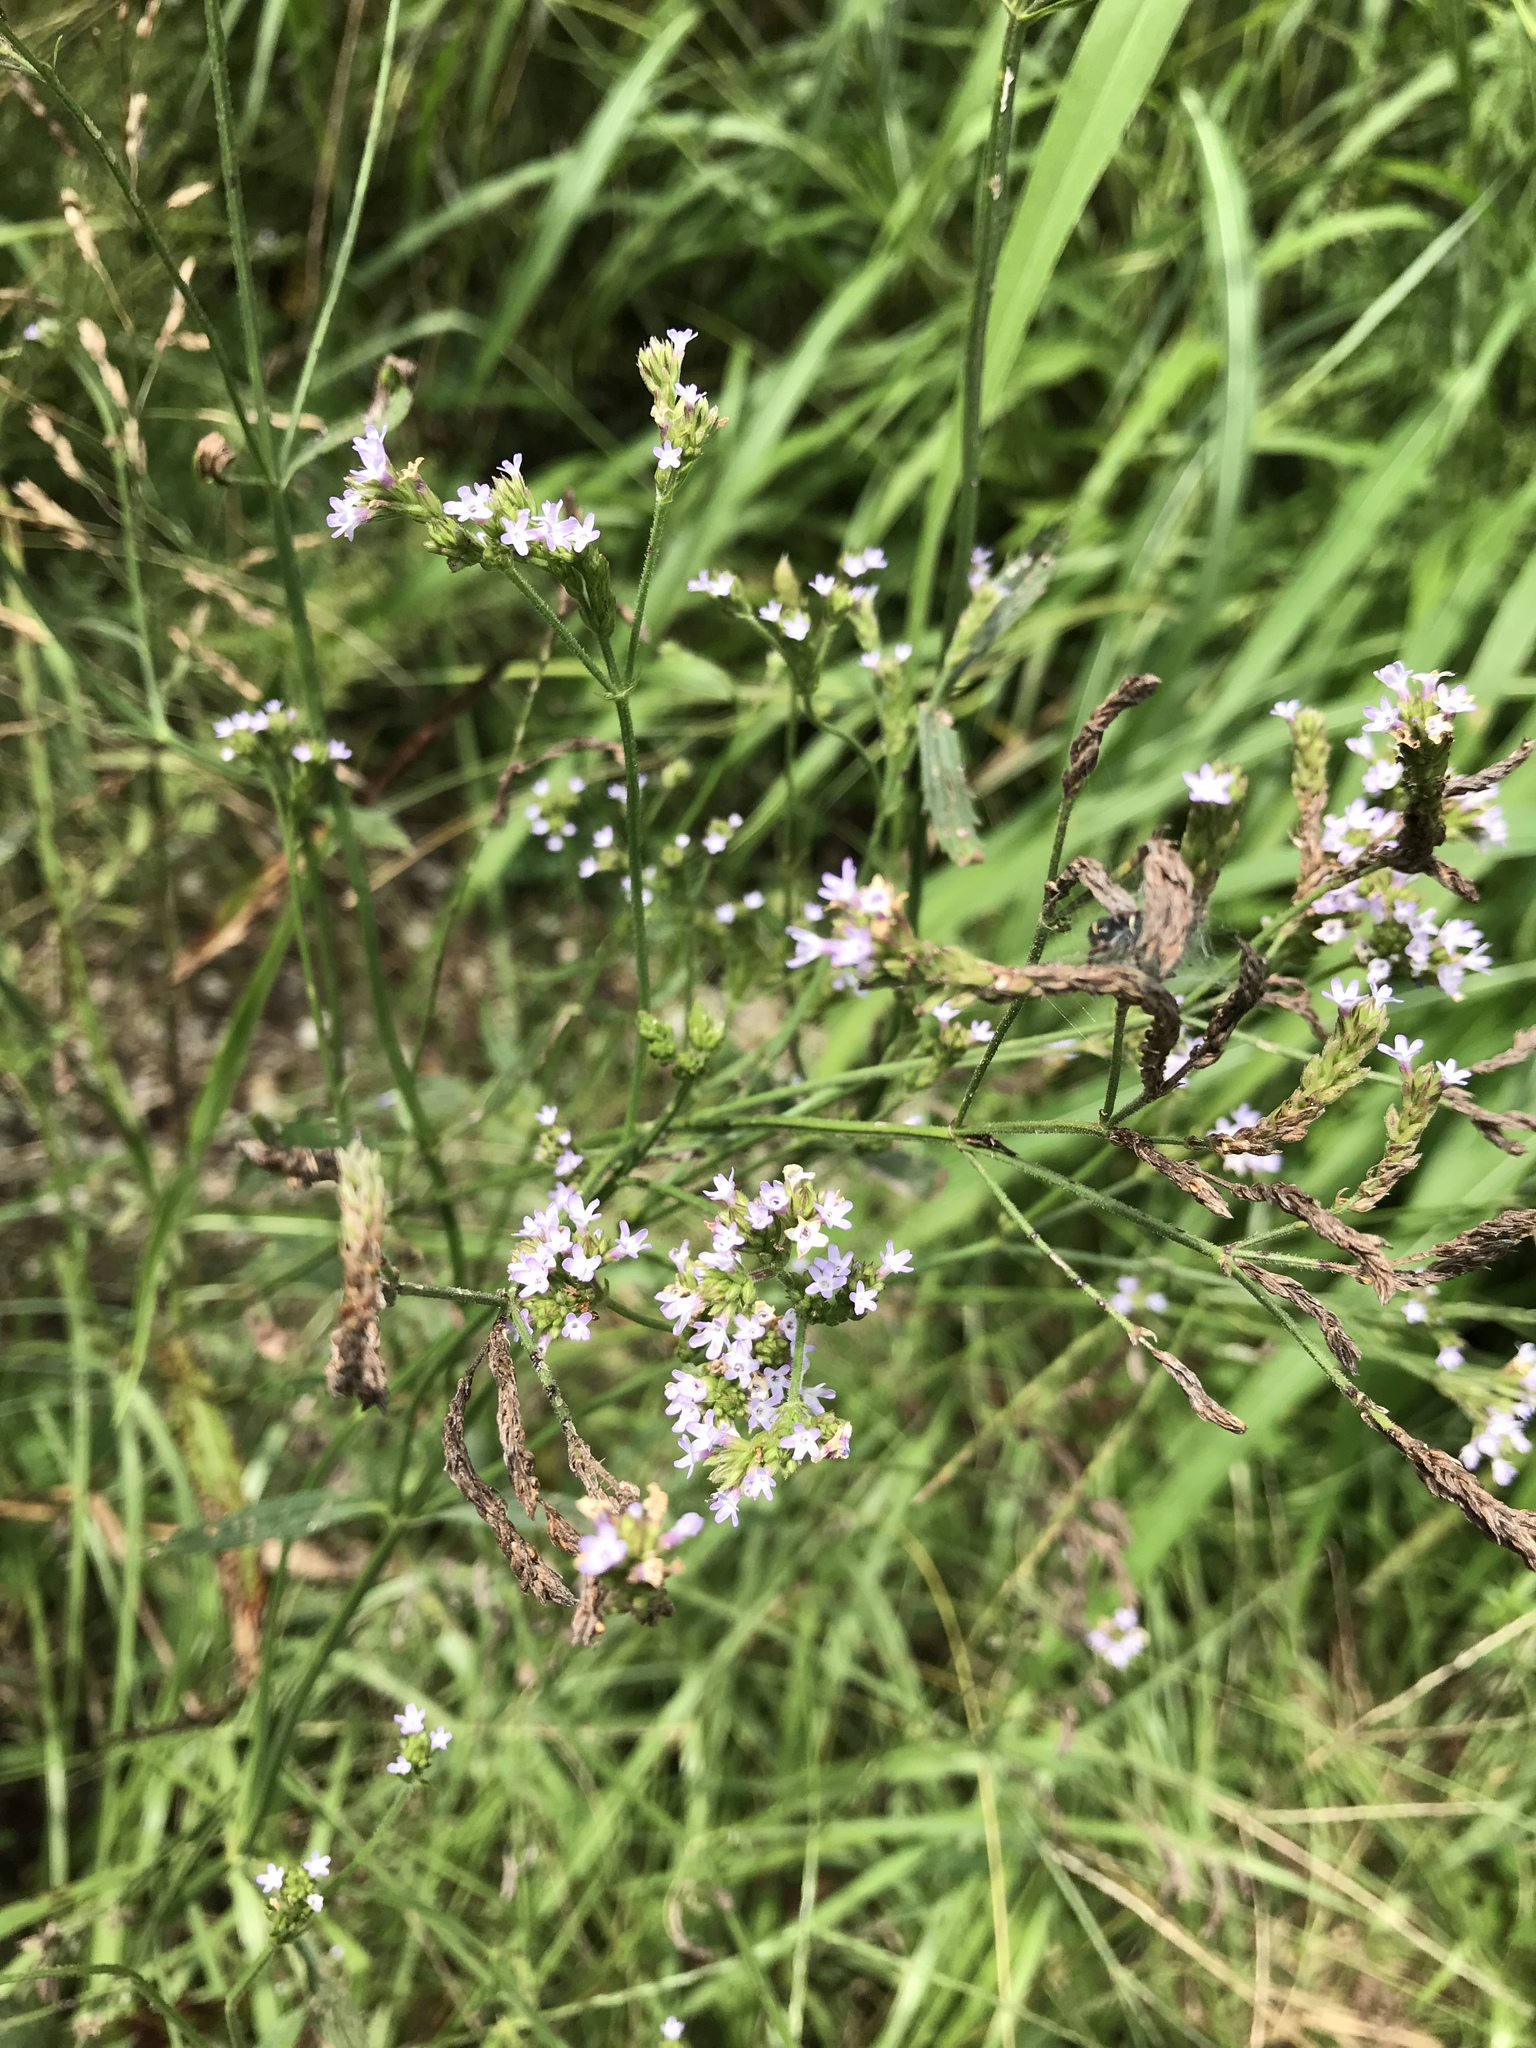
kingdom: Plantae
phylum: Tracheophyta
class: Magnoliopsida
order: Lamiales
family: Verbenaceae
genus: Verbena
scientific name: Verbena brasiliensis
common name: Brazilian vervain
